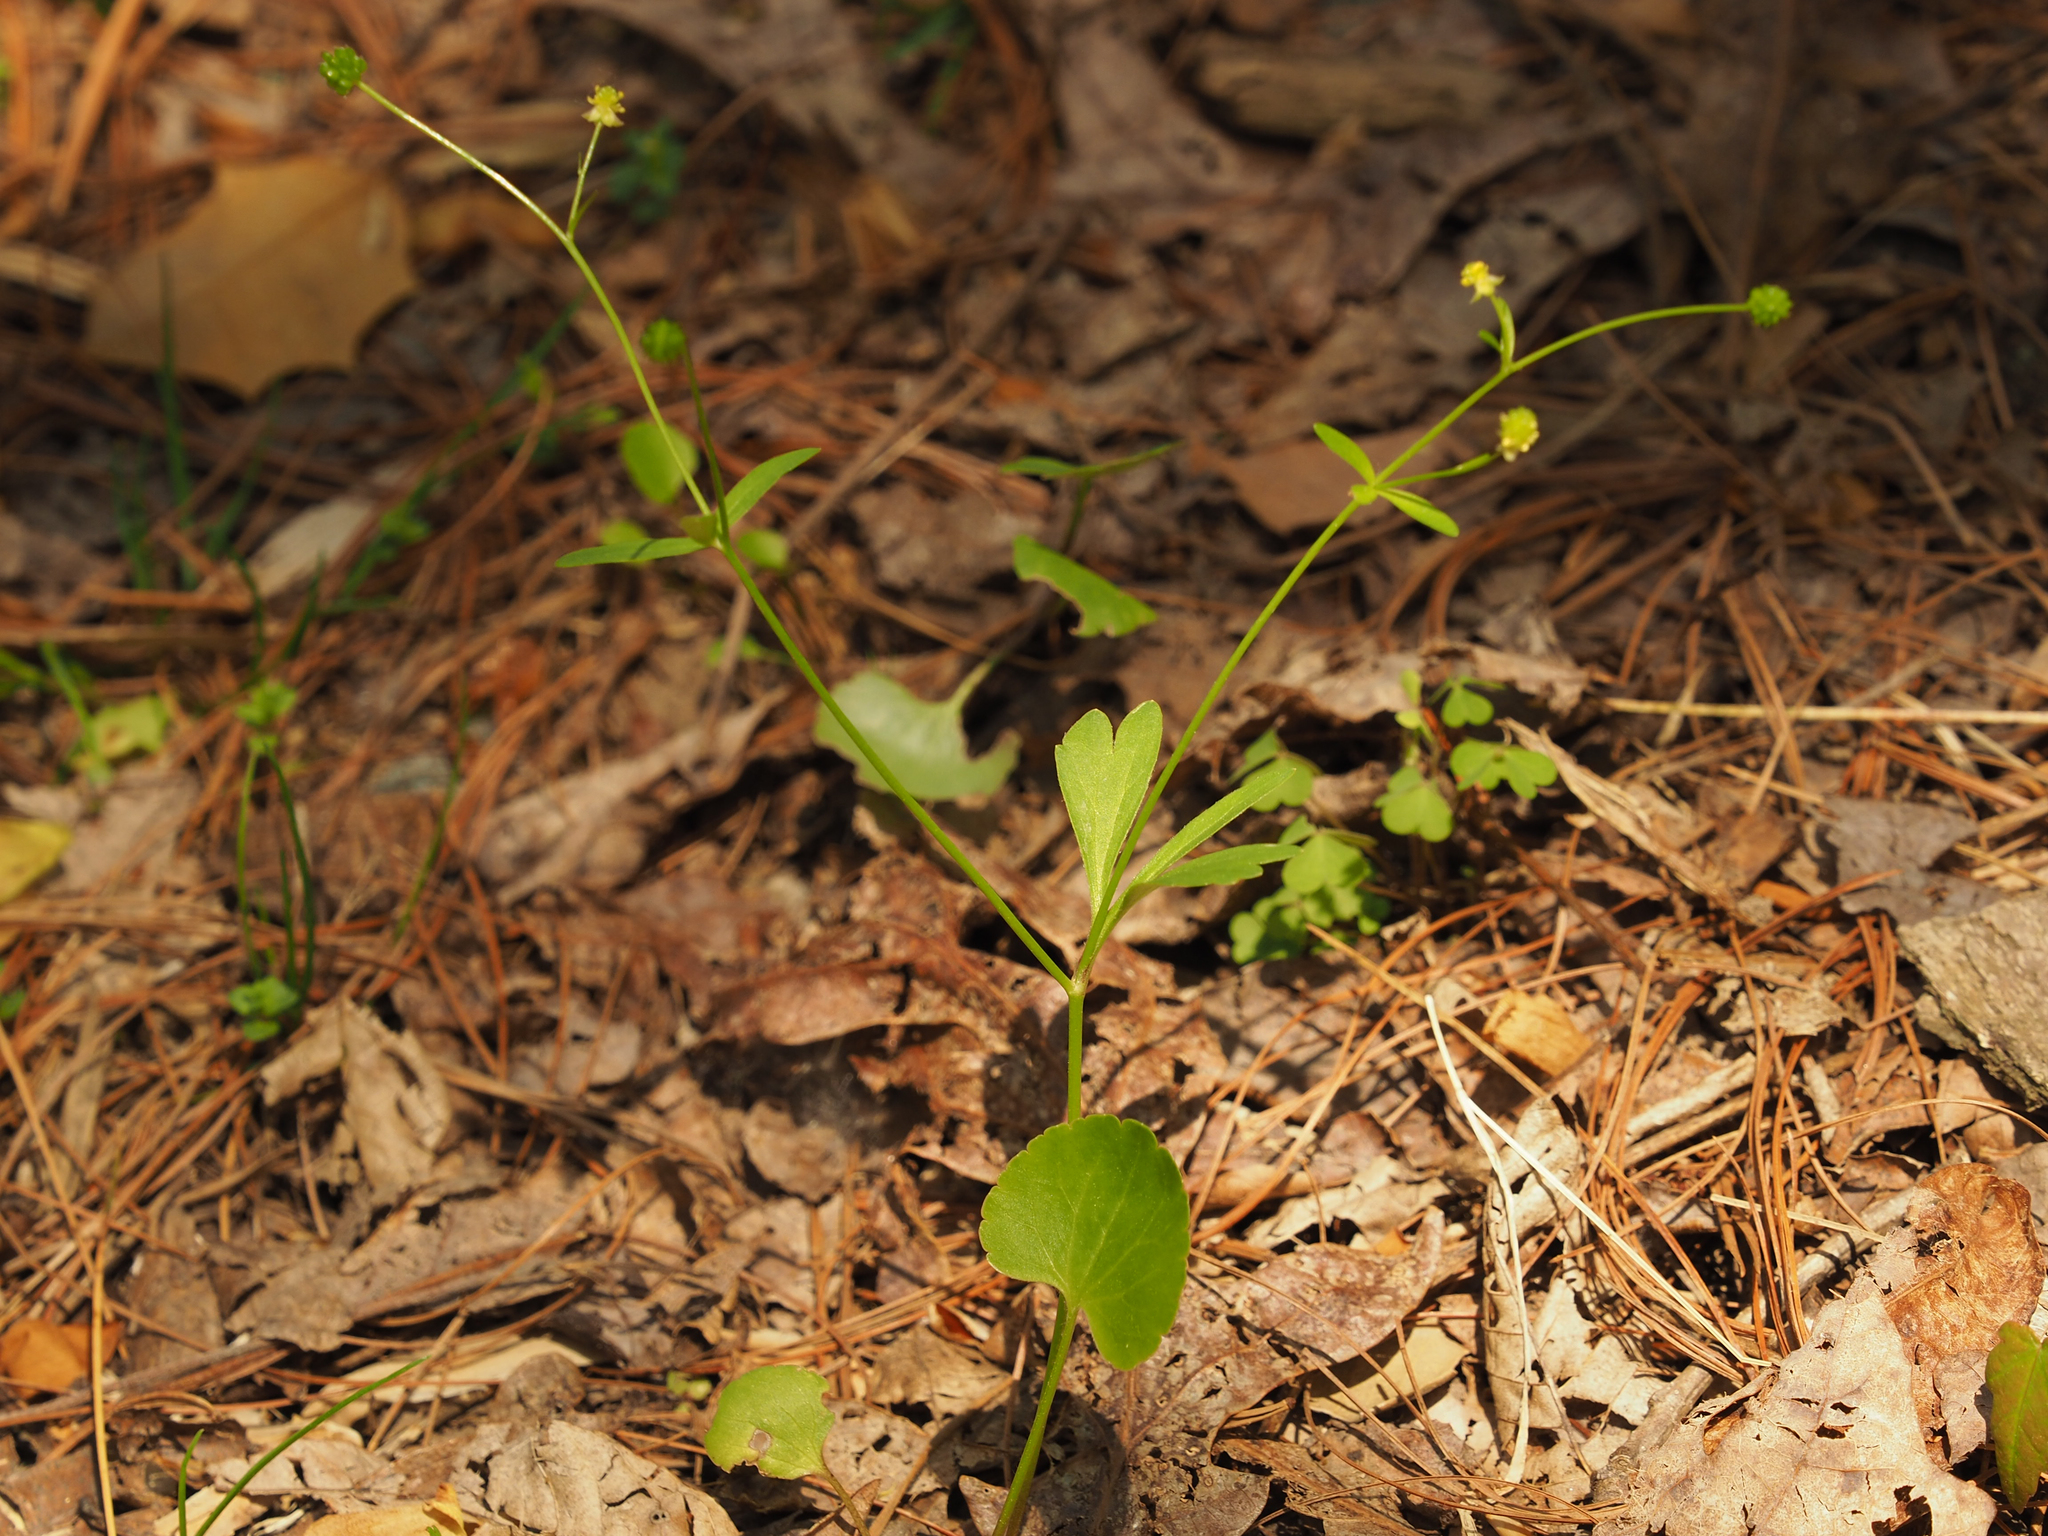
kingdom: Plantae
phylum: Tracheophyta
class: Magnoliopsida
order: Ranunculales
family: Ranunculaceae
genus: Ranunculus
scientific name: Ranunculus abortivus
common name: Early wood buttercup
